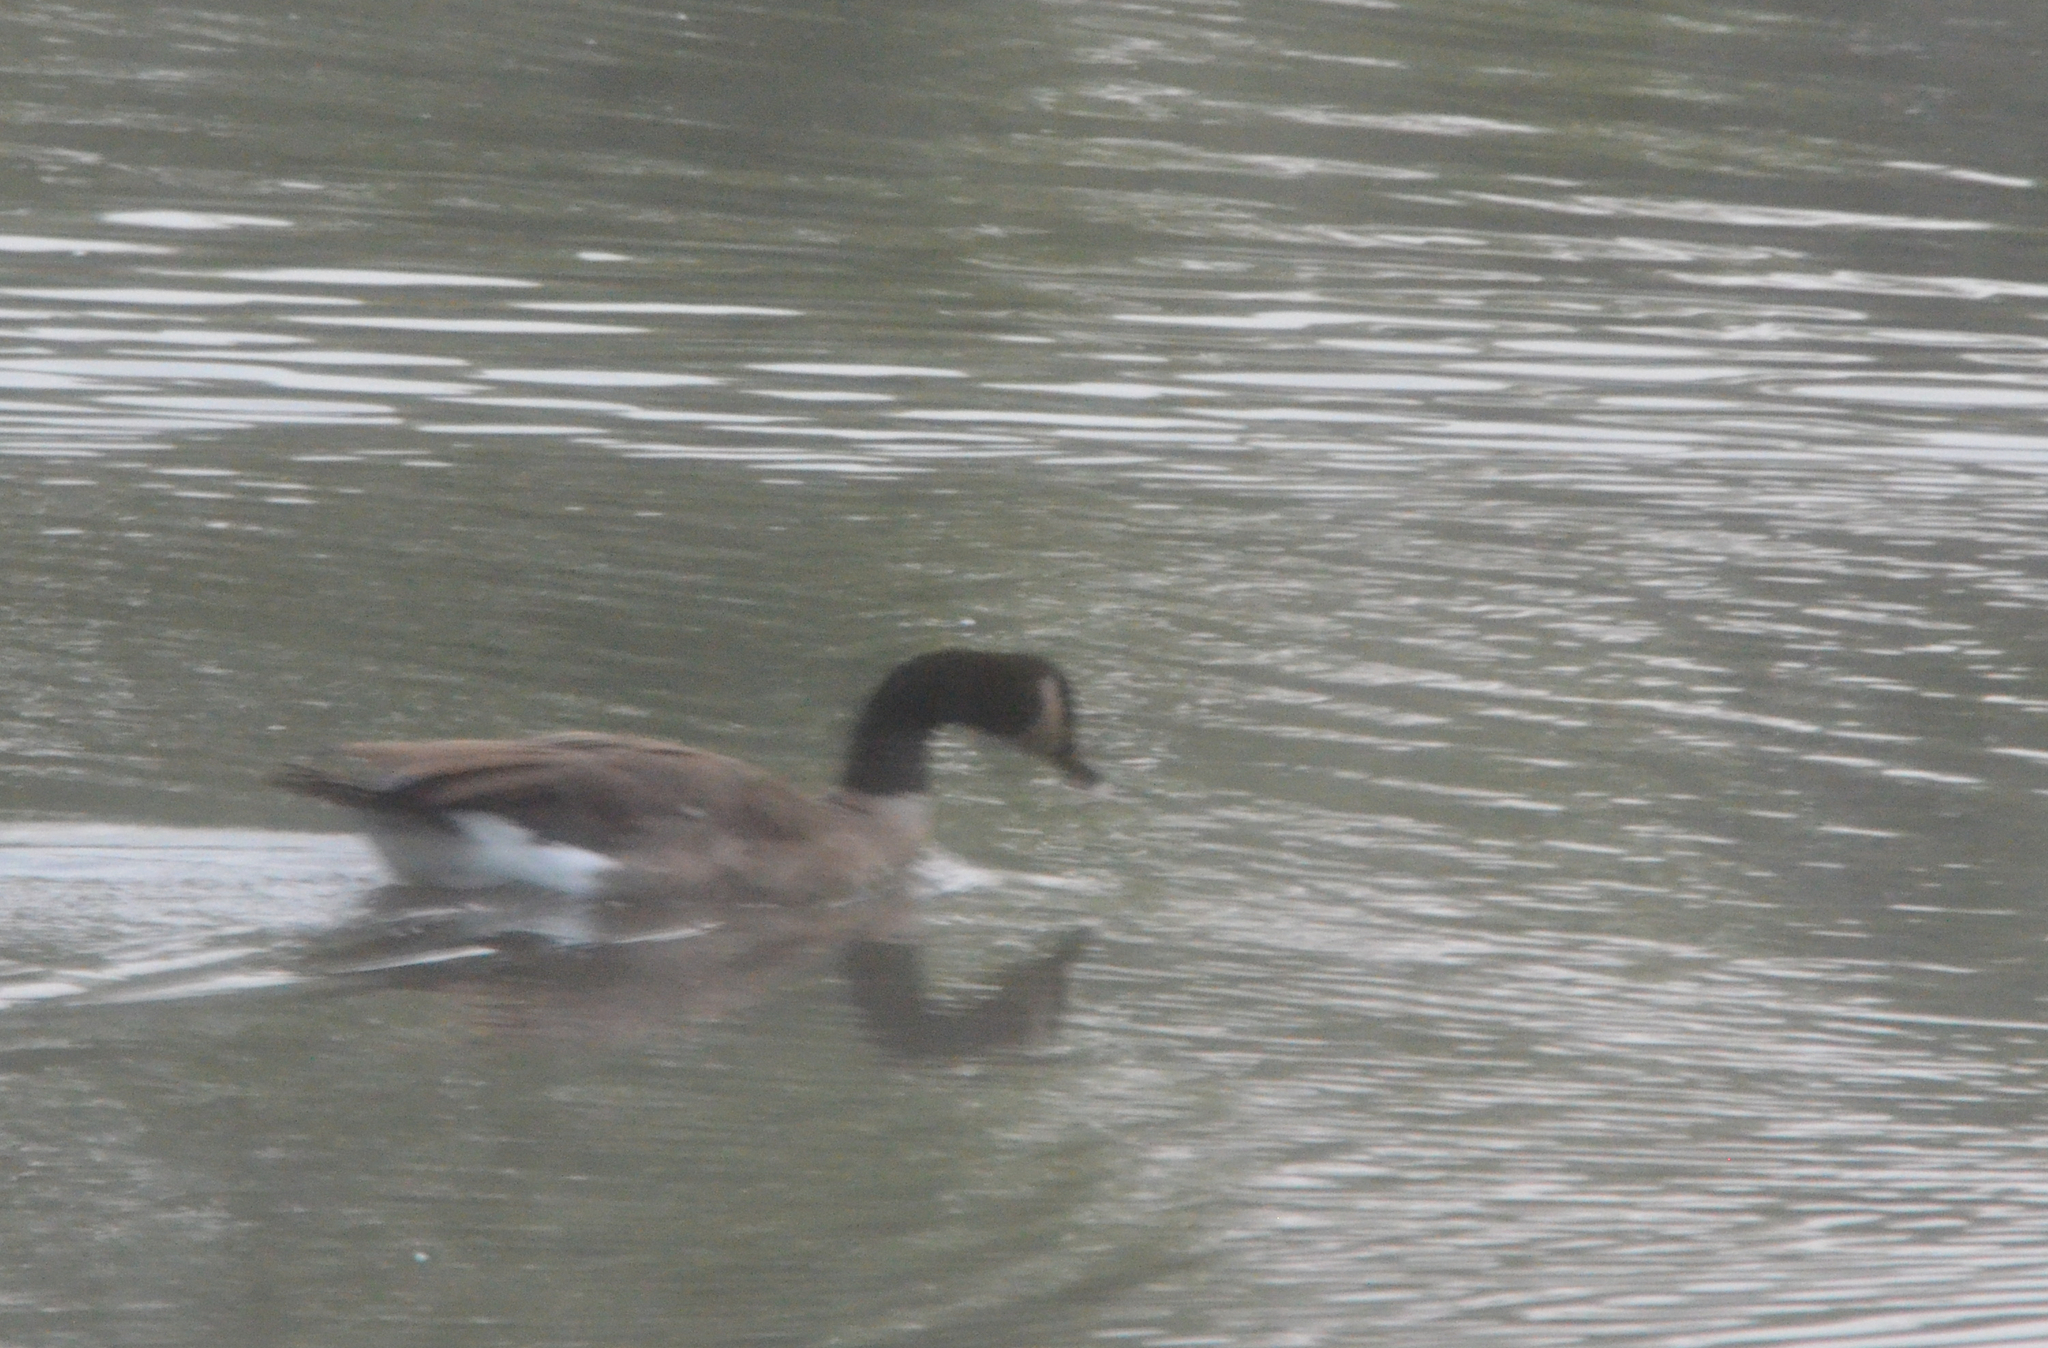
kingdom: Animalia
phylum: Chordata
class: Aves
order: Anseriformes
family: Anatidae
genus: Branta
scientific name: Branta canadensis
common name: Canada goose
